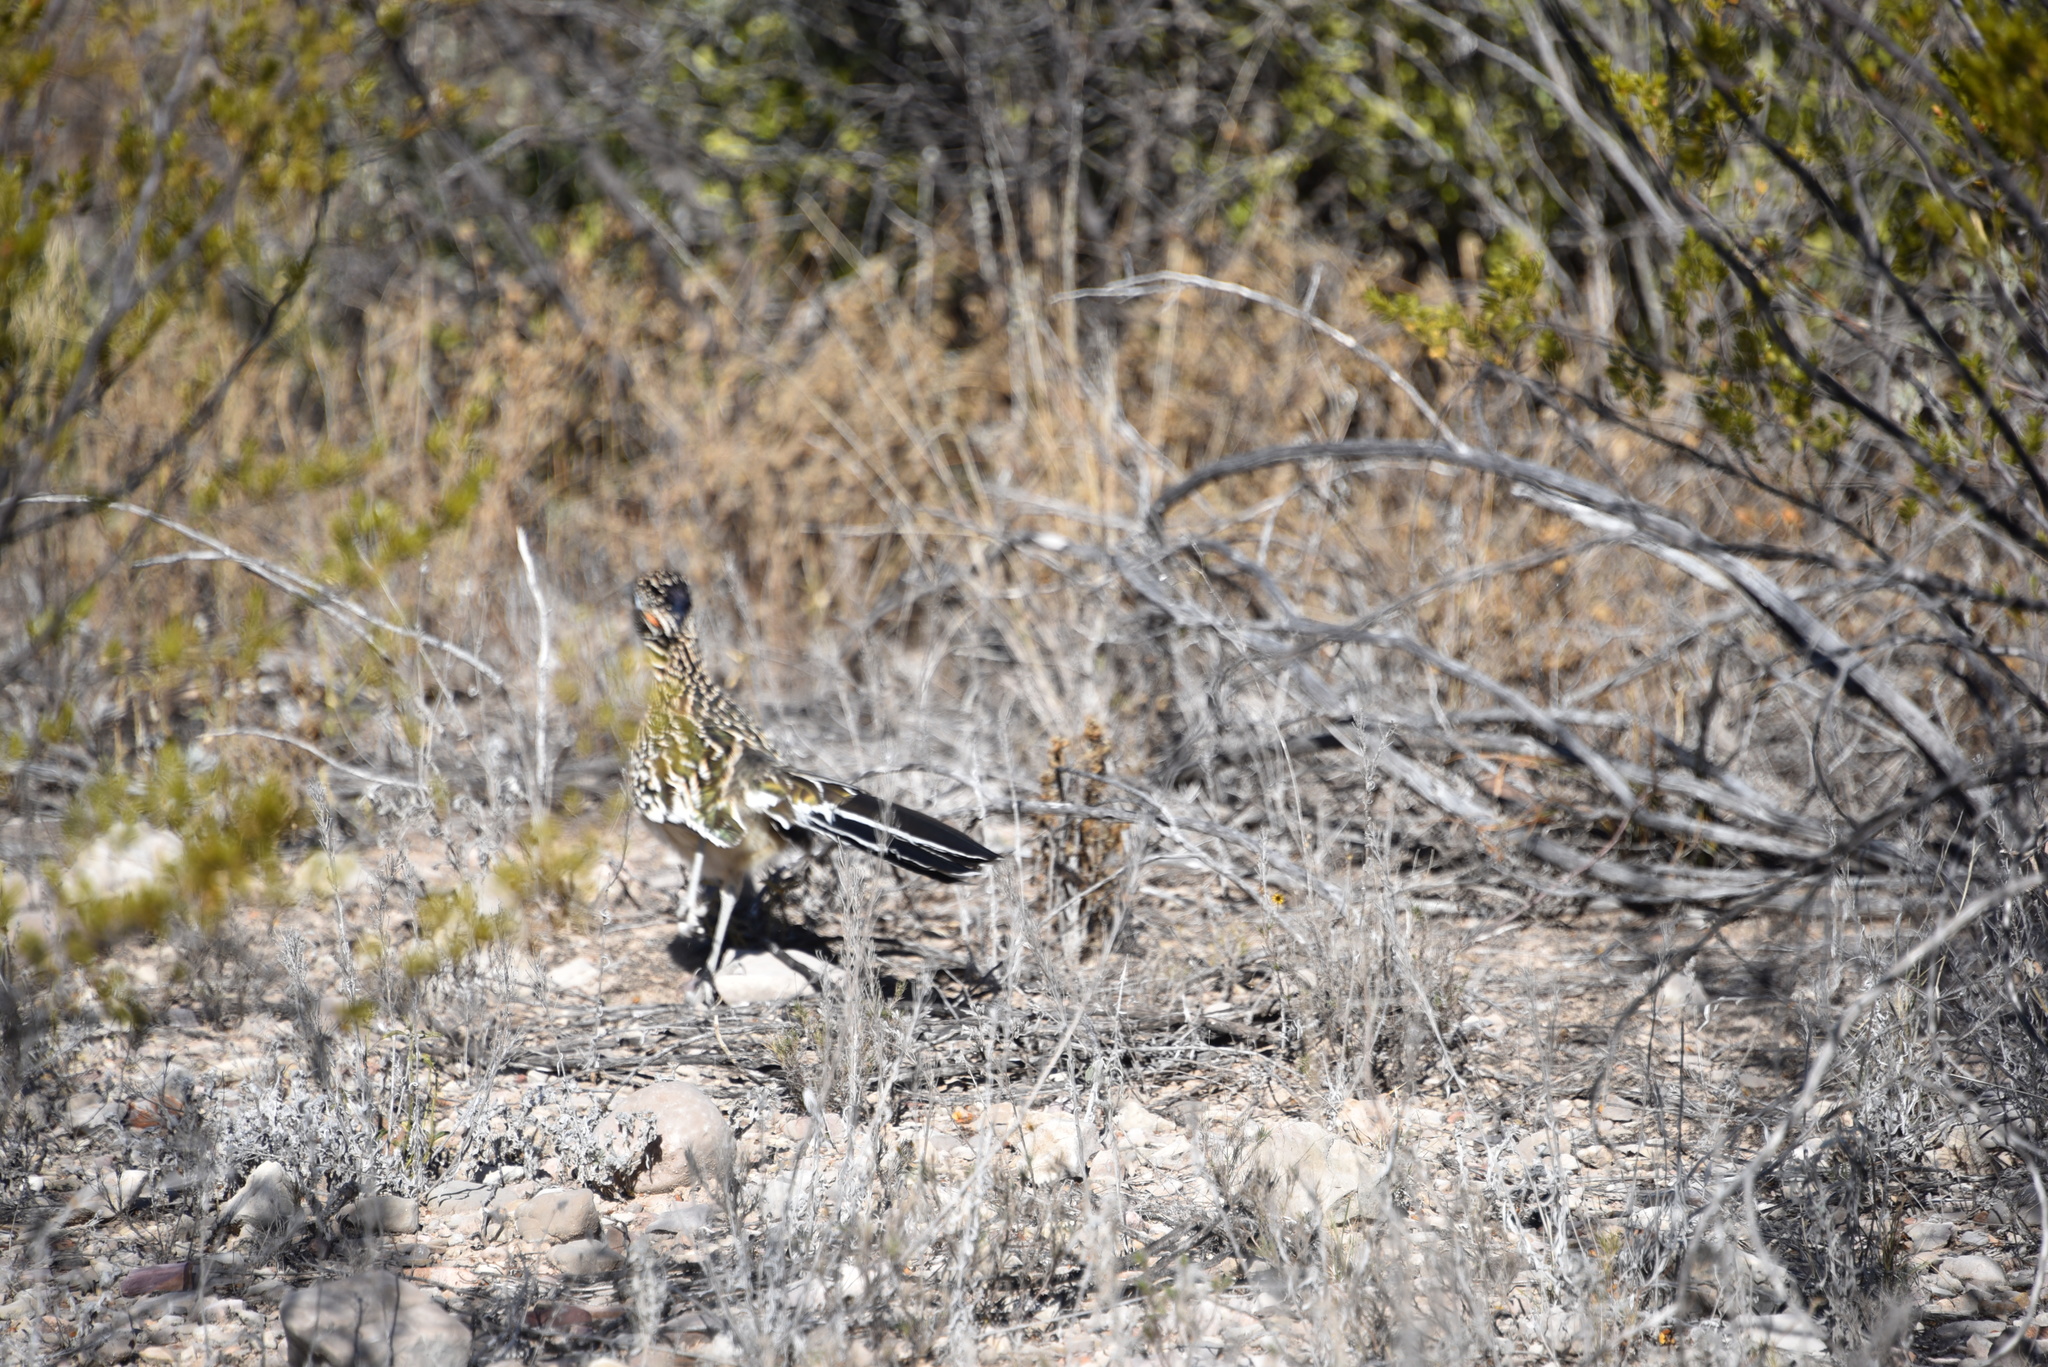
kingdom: Animalia
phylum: Chordata
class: Aves
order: Cuculiformes
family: Cuculidae
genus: Geococcyx
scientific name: Geococcyx californianus
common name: Greater roadrunner
